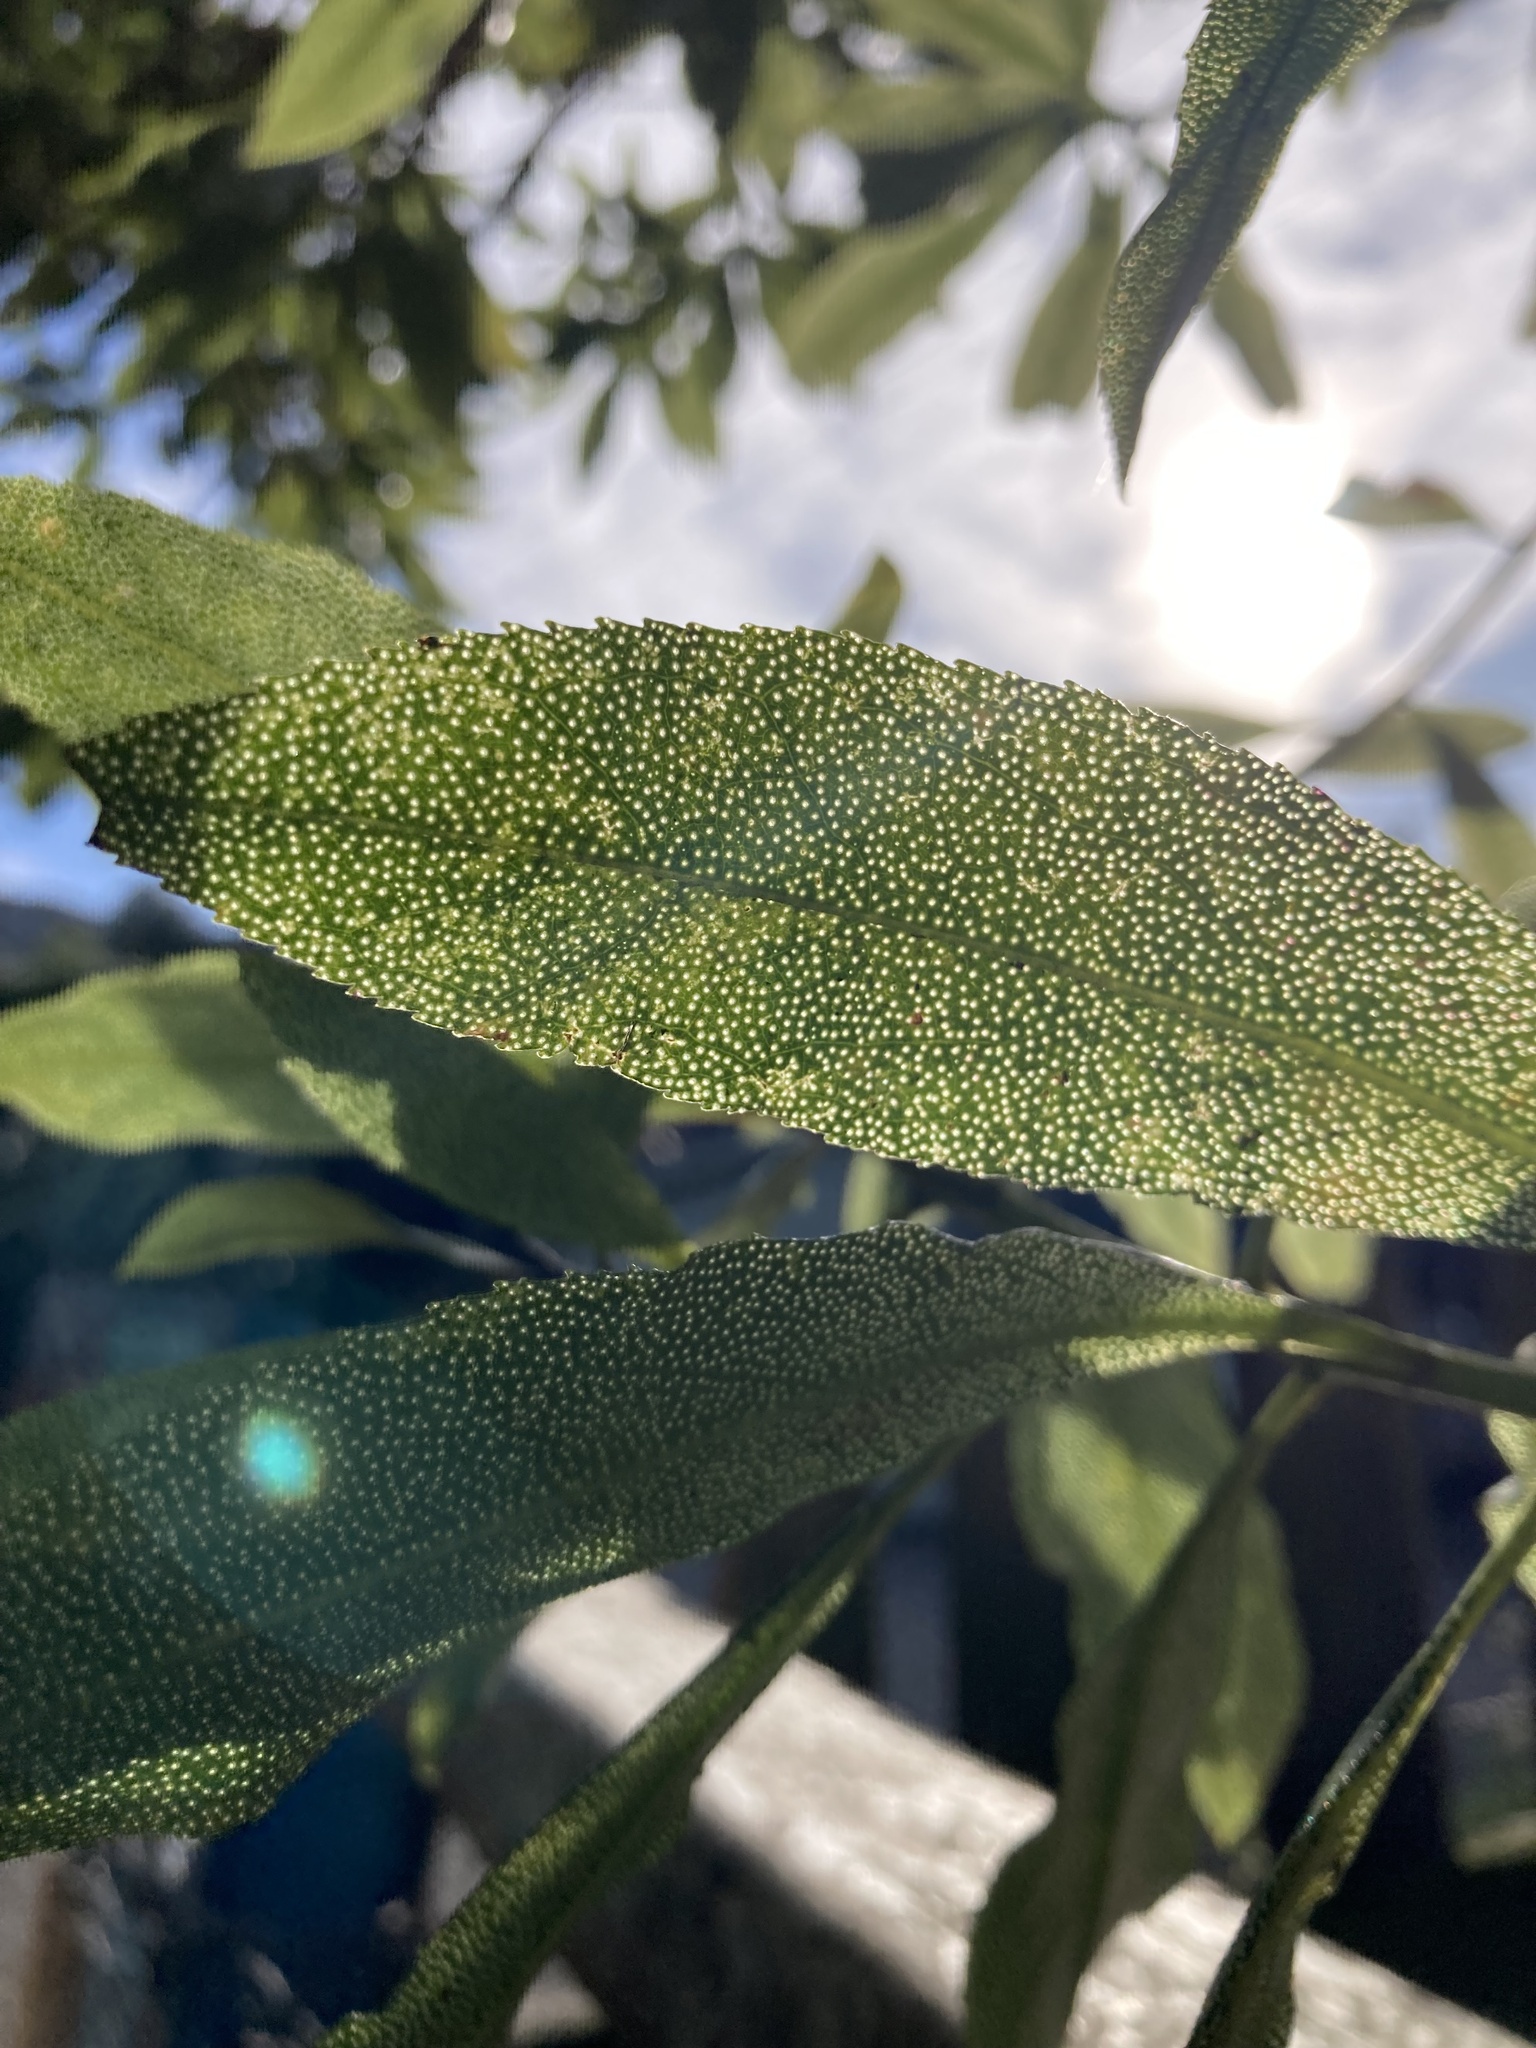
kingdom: Plantae
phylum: Tracheophyta
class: Magnoliopsida
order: Lamiales
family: Scrophulariaceae
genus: Myoporum
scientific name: Myoporum laetum
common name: Ngaio tree
